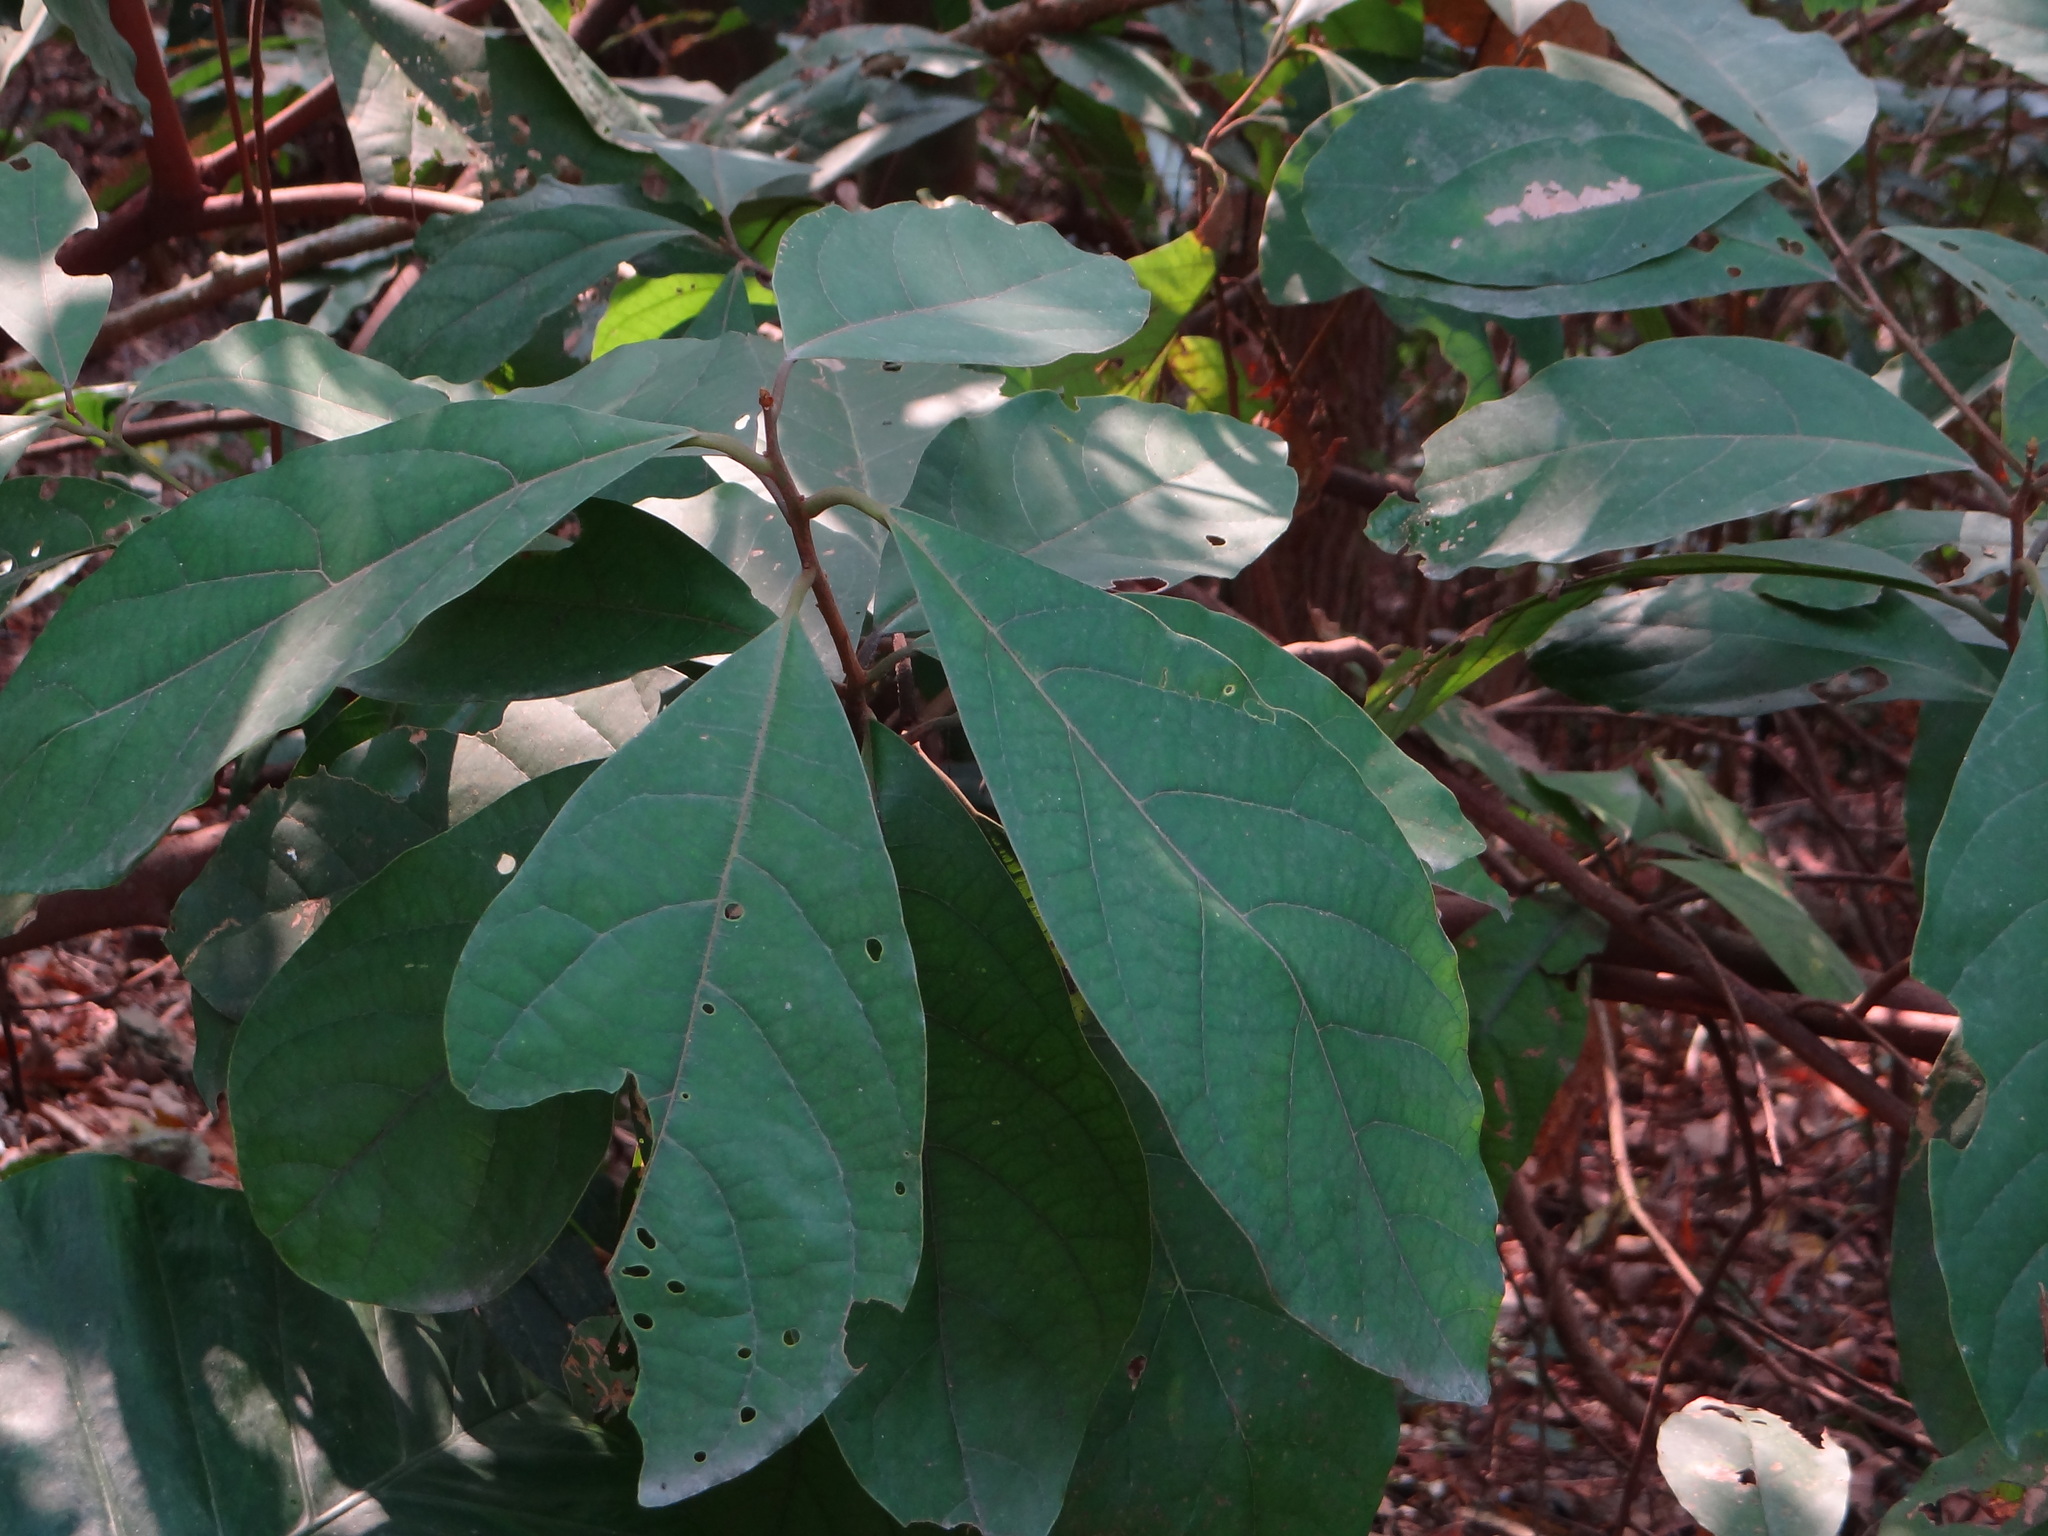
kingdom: Plantae
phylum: Tracheophyta
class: Magnoliopsida
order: Laurales
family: Lauraceae
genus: Litsea
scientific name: Litsea akoensis
